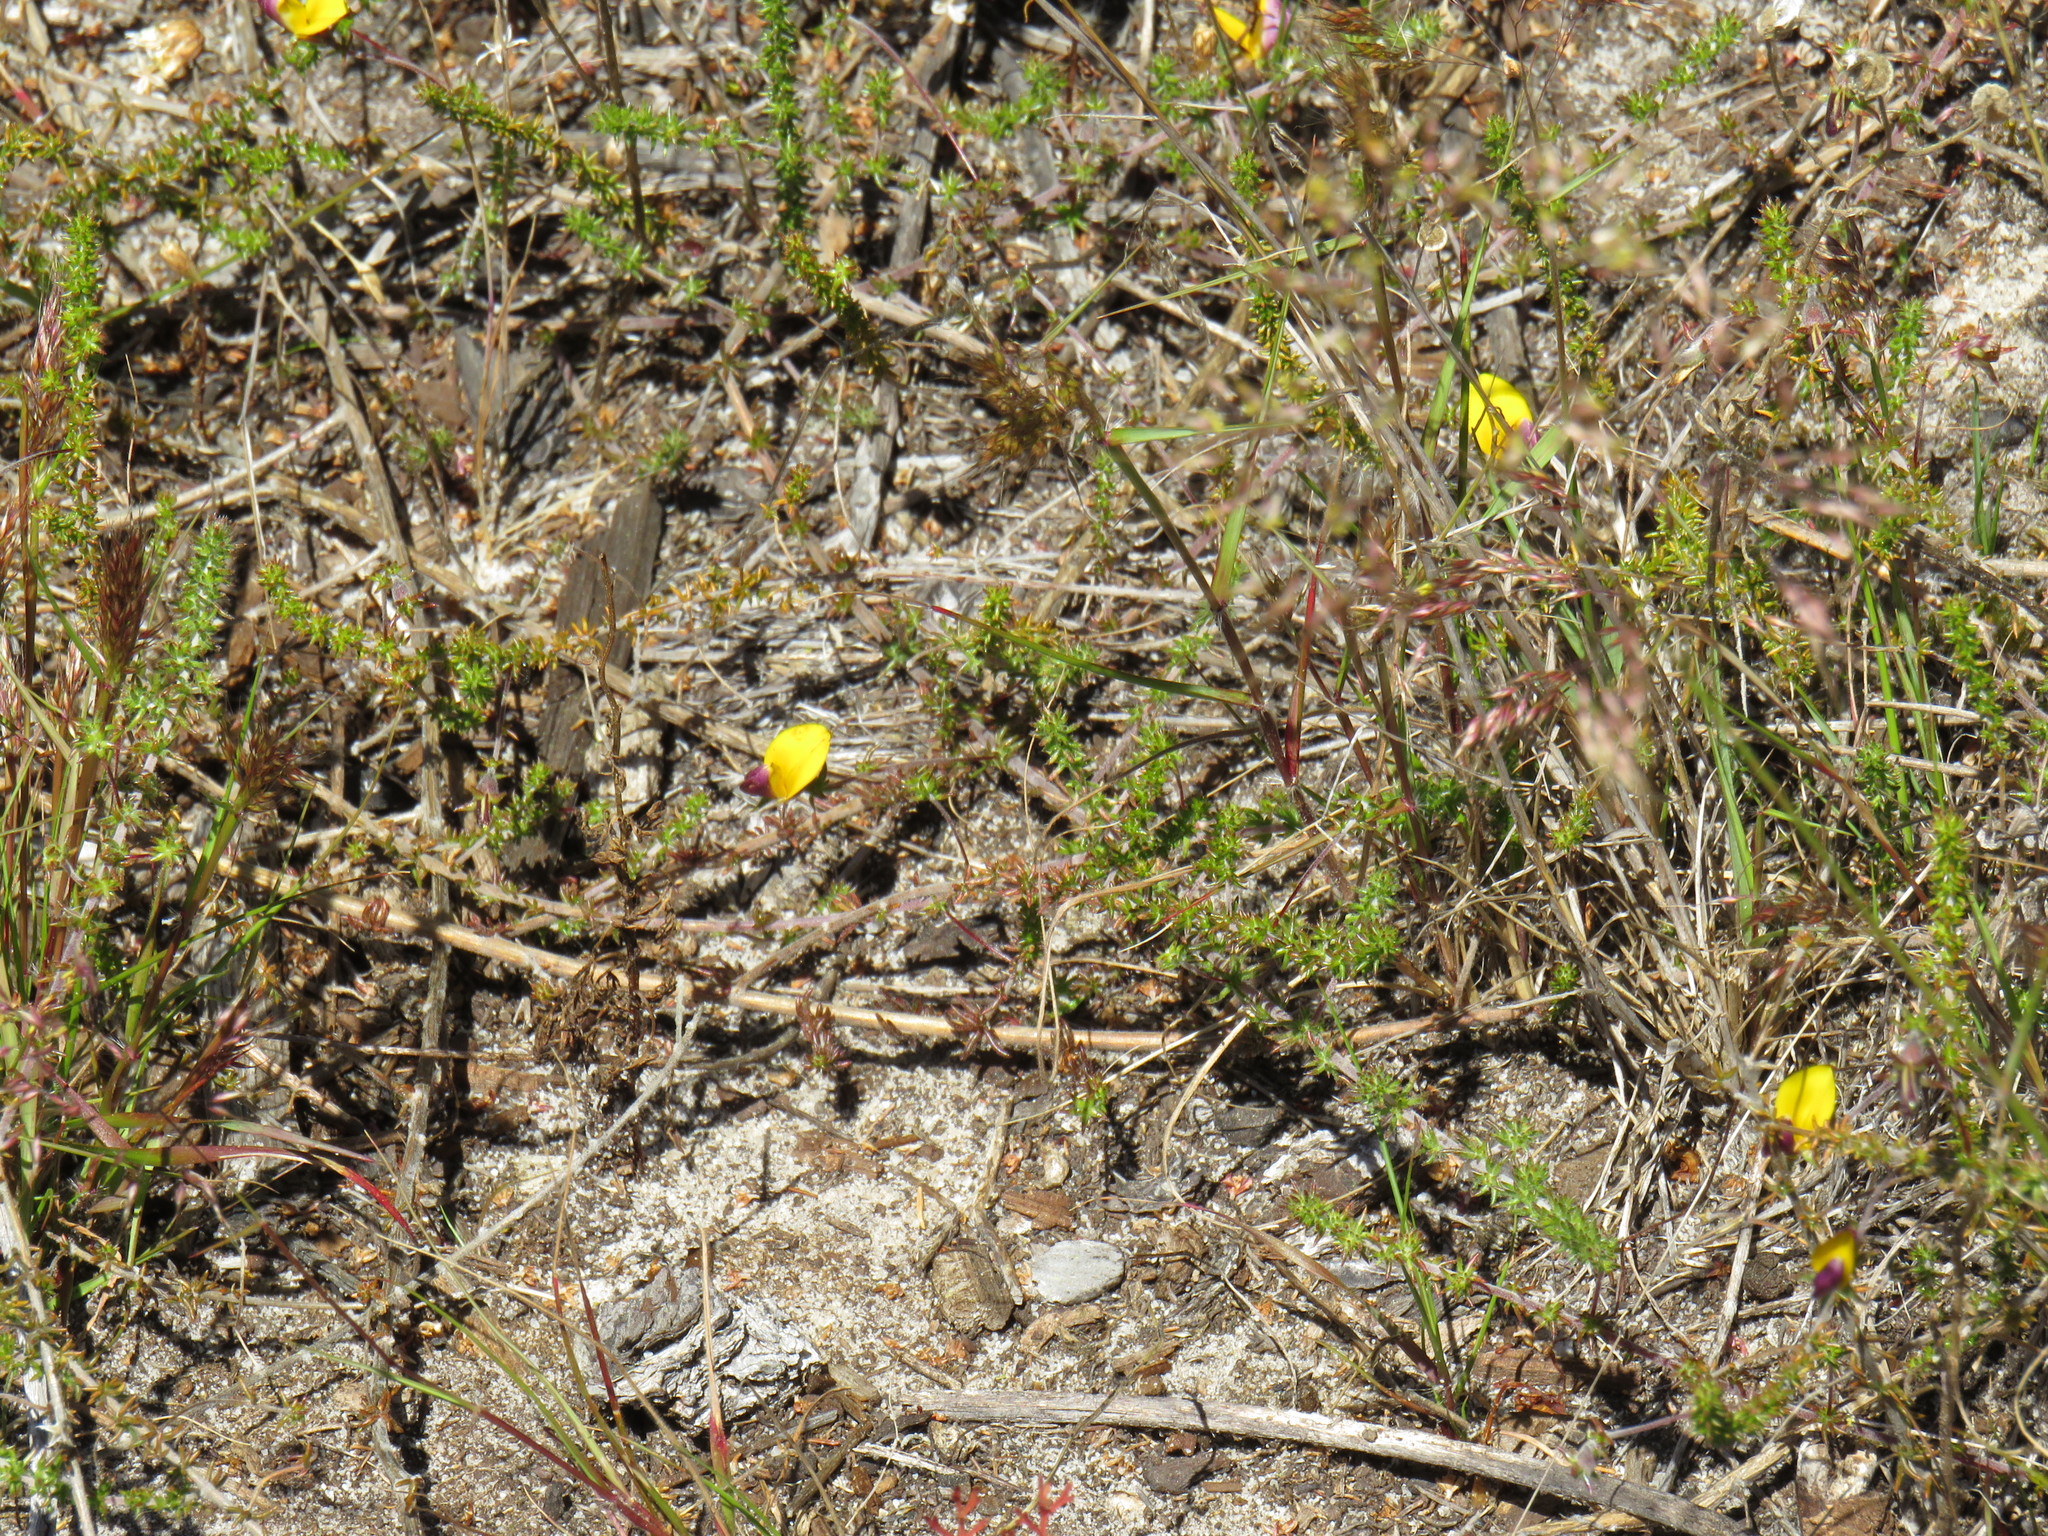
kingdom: Plantae
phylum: Tracheophyta
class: Magnoliopsida
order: Fabales
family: Fabaceae
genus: Aspalathus
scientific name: Aspalathus retroflexa
